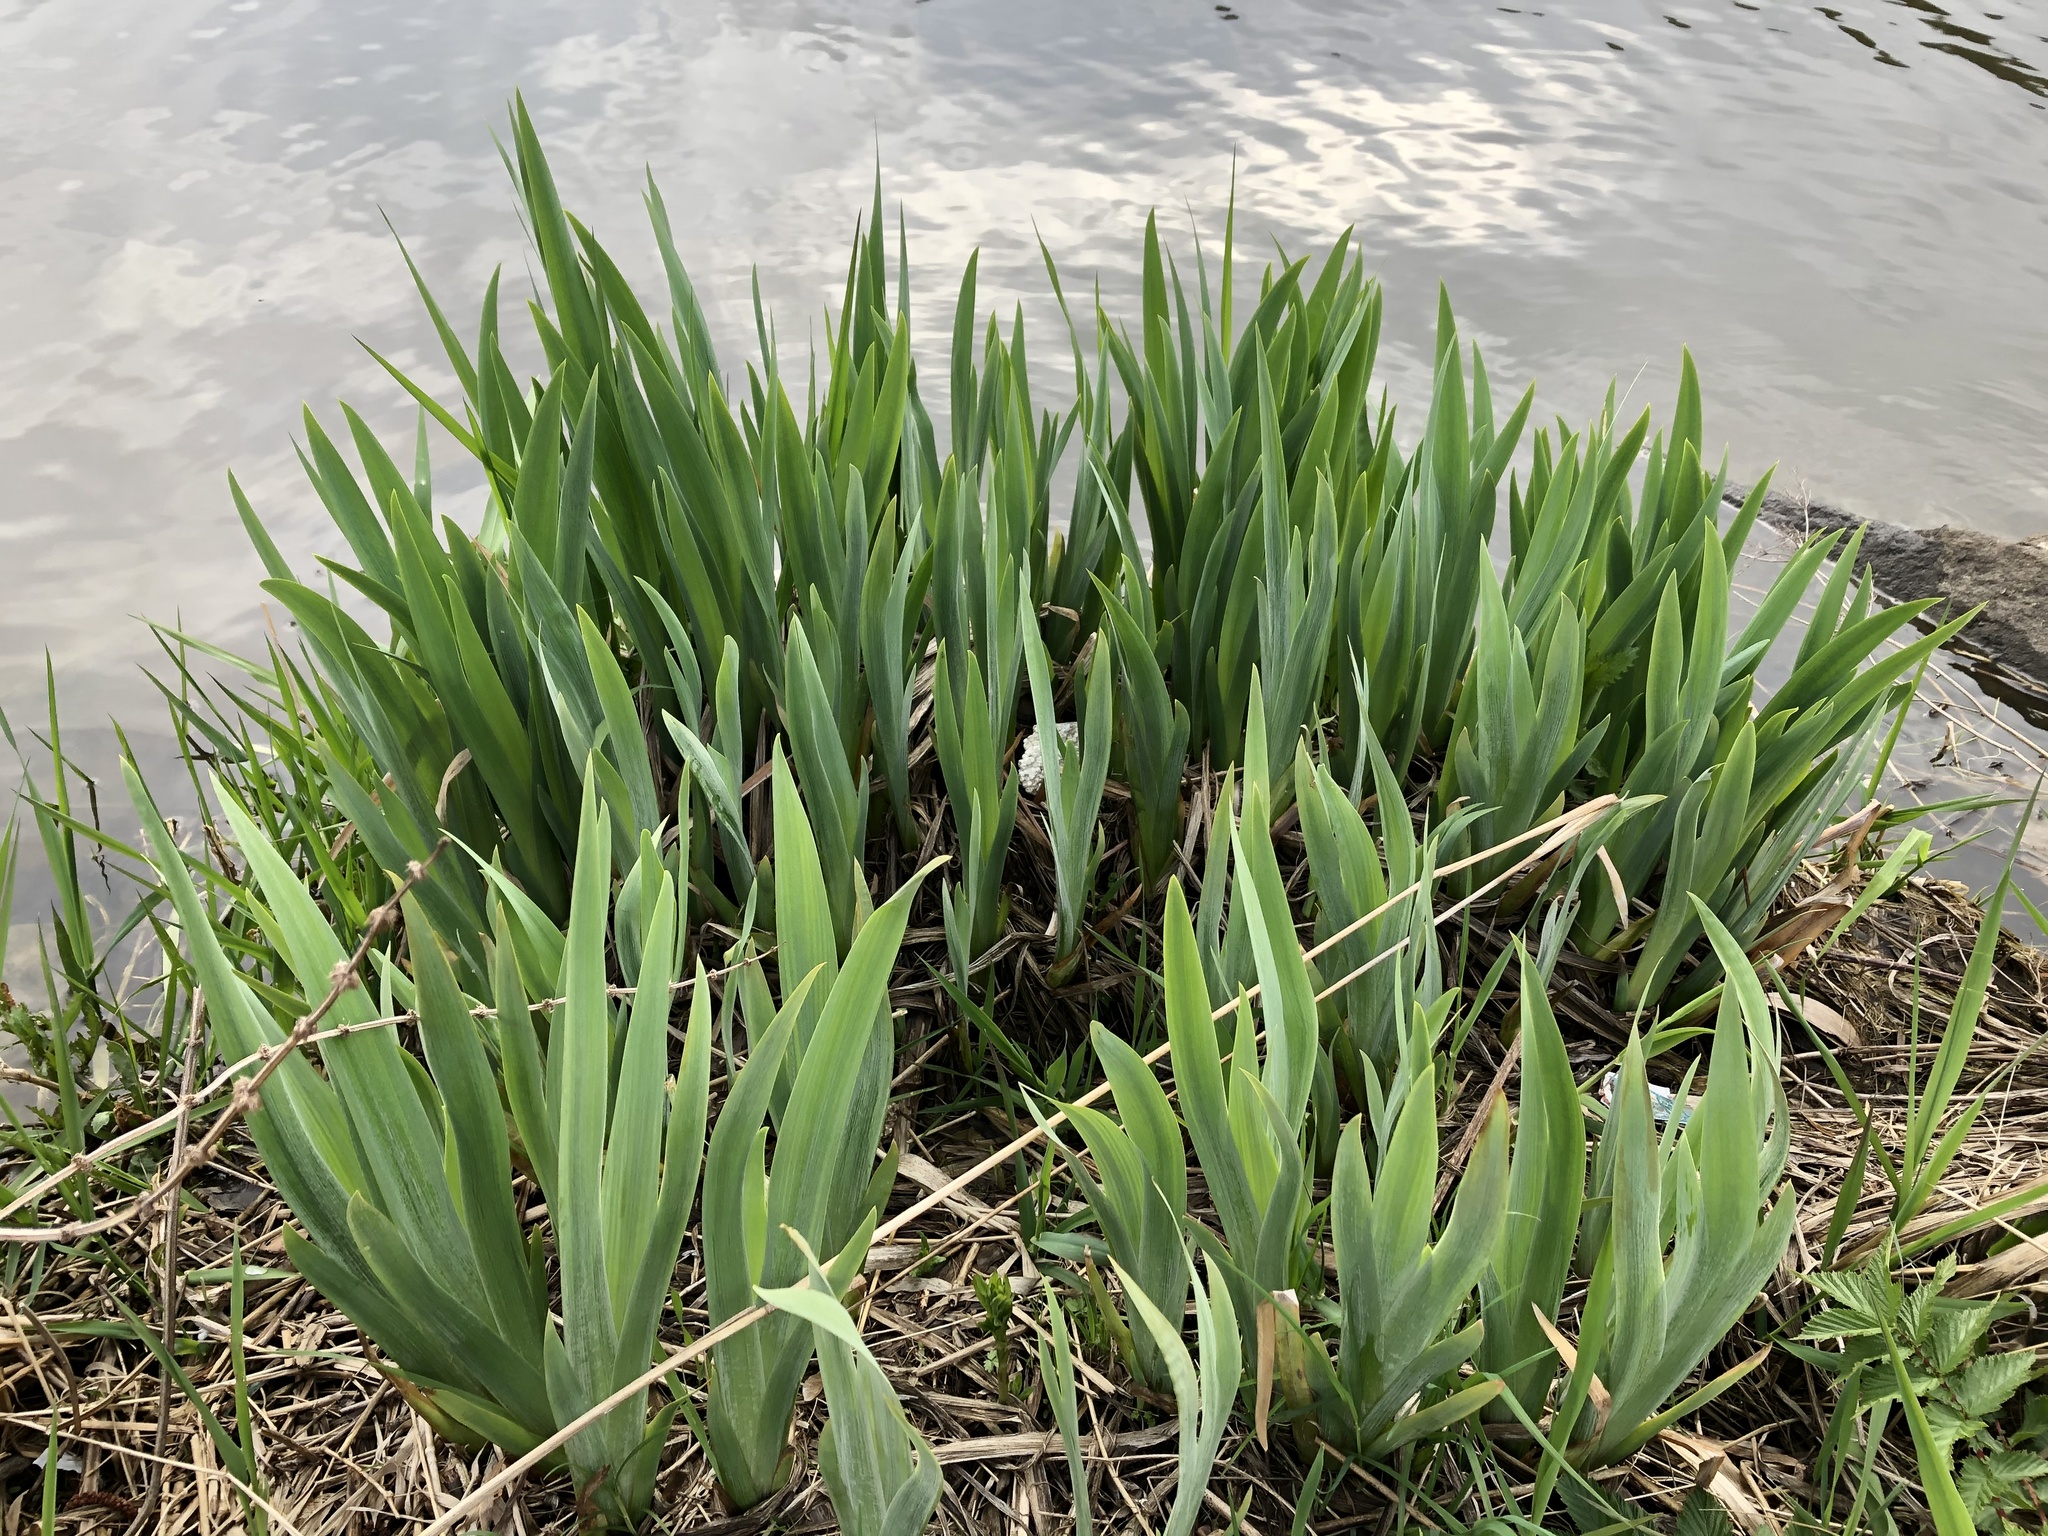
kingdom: Plantae
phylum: Tracheophyta
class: Liliopsida
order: Asparagales
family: Iridaceae
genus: Iris
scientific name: Iris pseudacorus
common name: Yellow flag
